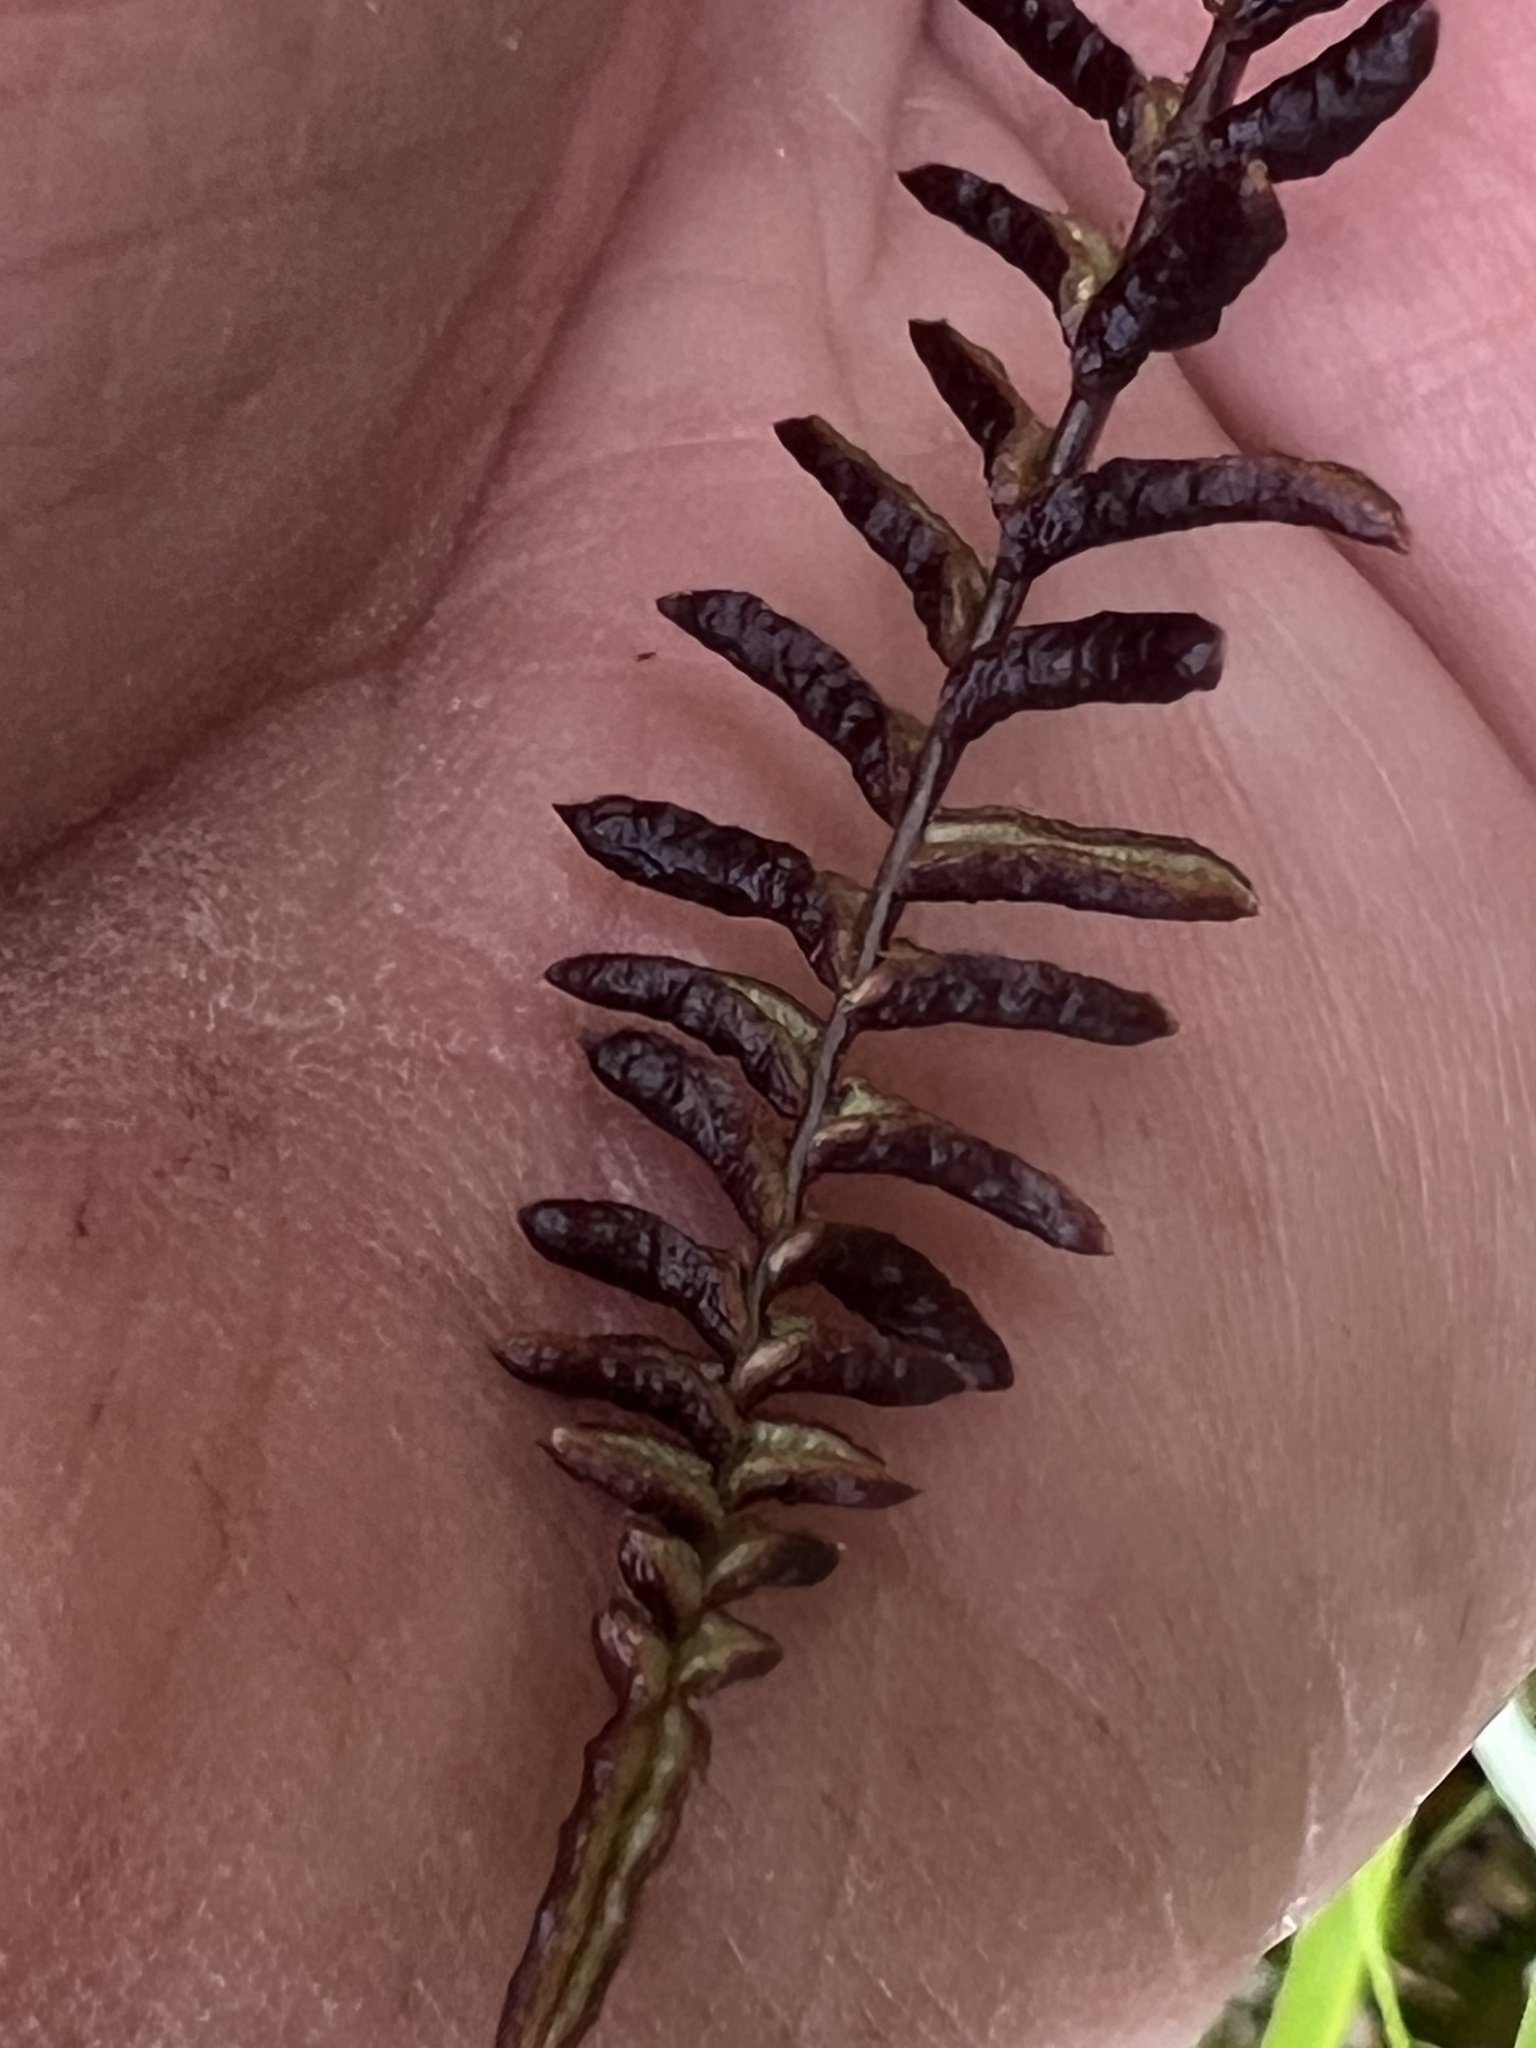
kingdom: Plantae
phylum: Tracheophyta
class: Polypodiopsida
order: Polypodiales
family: Blechnaceae
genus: Austroblechnum
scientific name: Austroblechnum penna-marina
